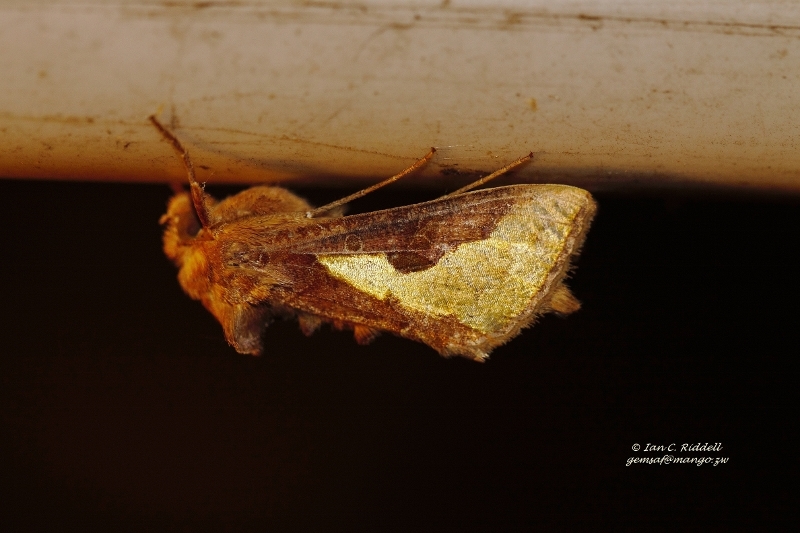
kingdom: Animalia
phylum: Arthropoda
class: Insecta
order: Lepidoptera
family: Noctuidae
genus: Thysanoplusia
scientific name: Thysanoplusia orichalcea
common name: Slender burnished brass, golden plusia
